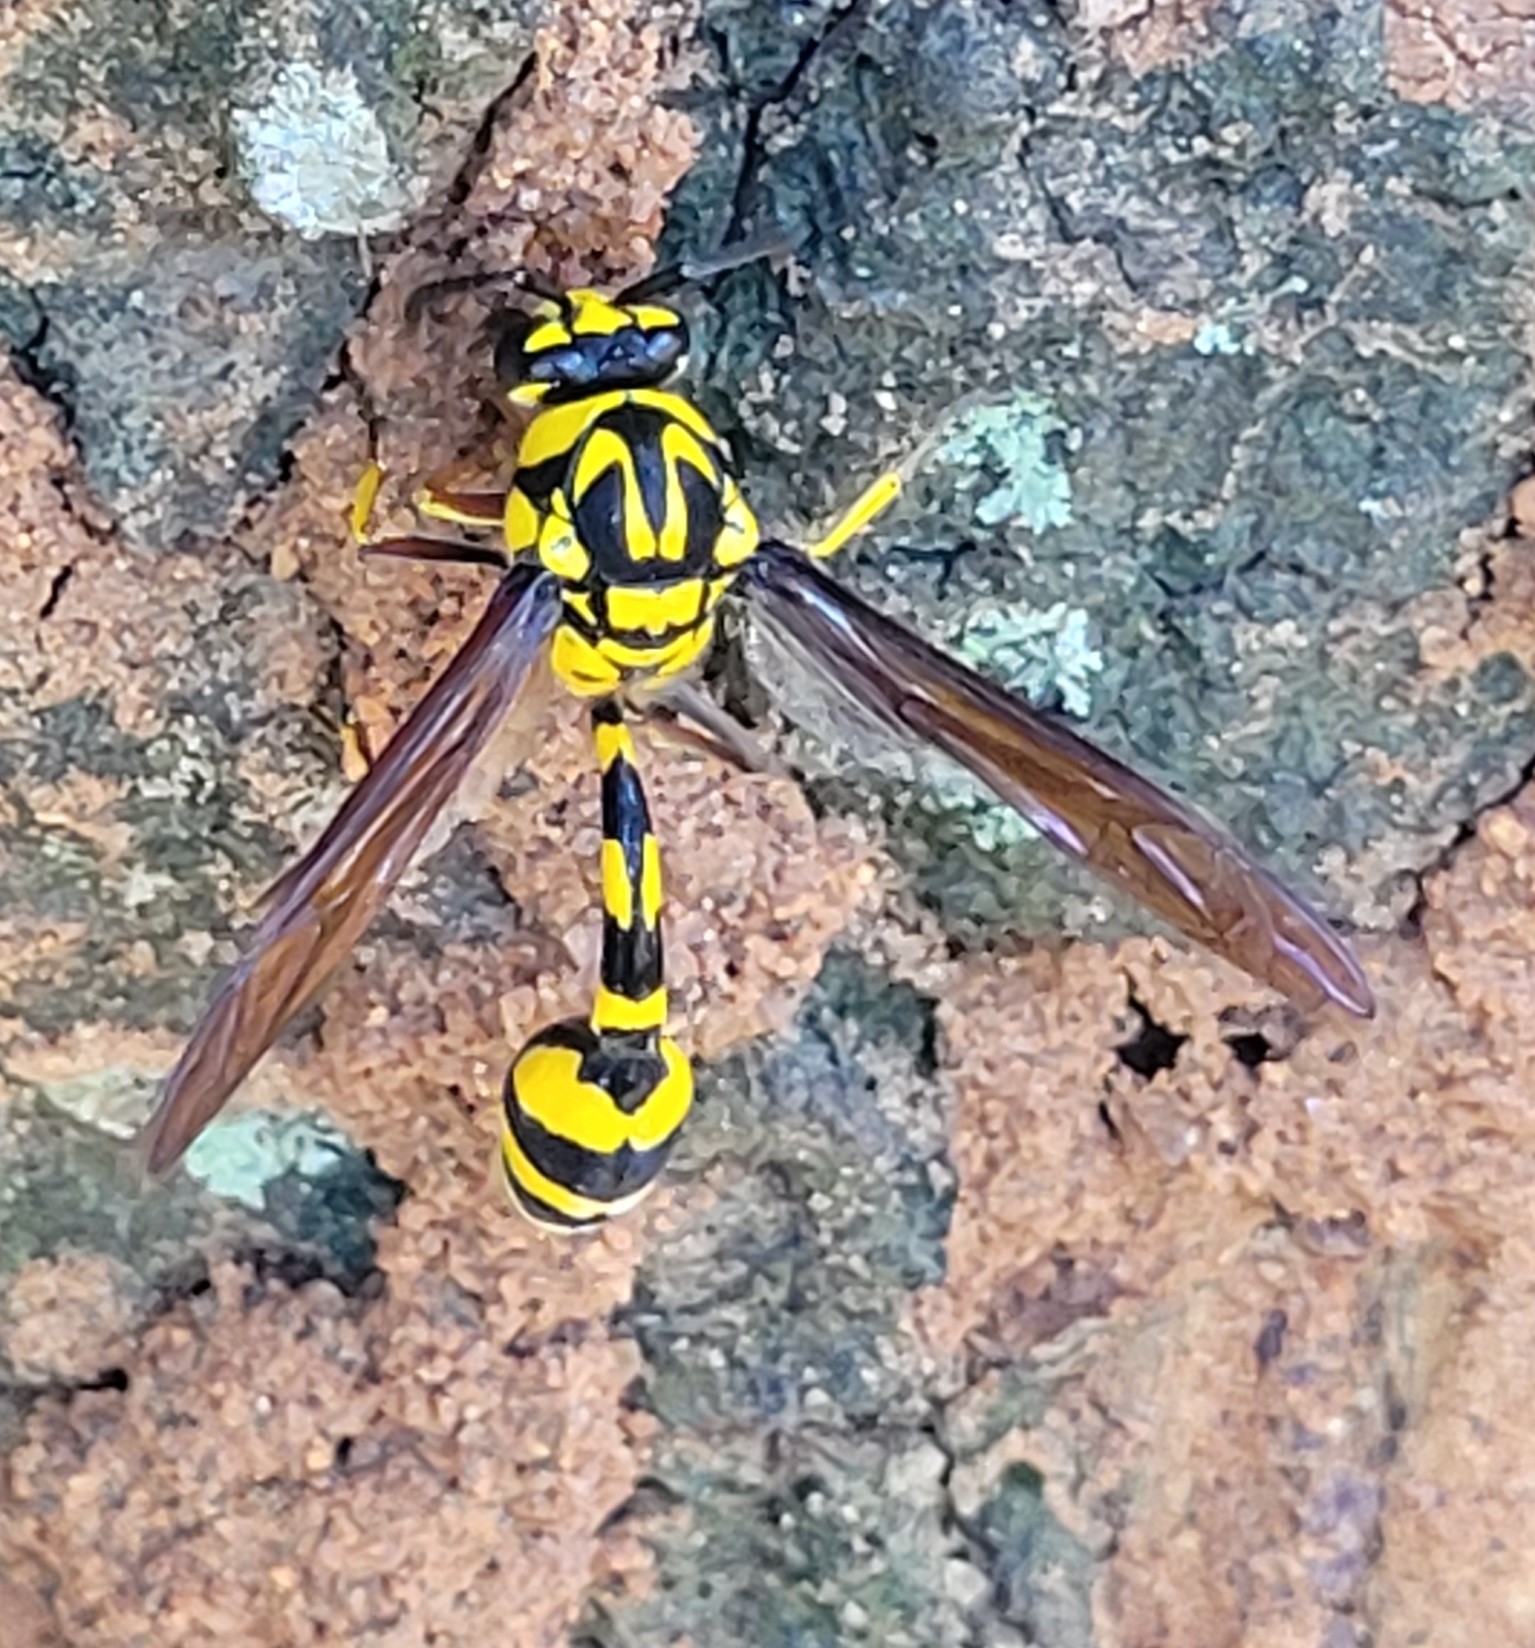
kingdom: Animalia
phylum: Arthropoda
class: Insecta
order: Hymenoptera
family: Eumenidae
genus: Phimenes
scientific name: Phimenes flavopictus
